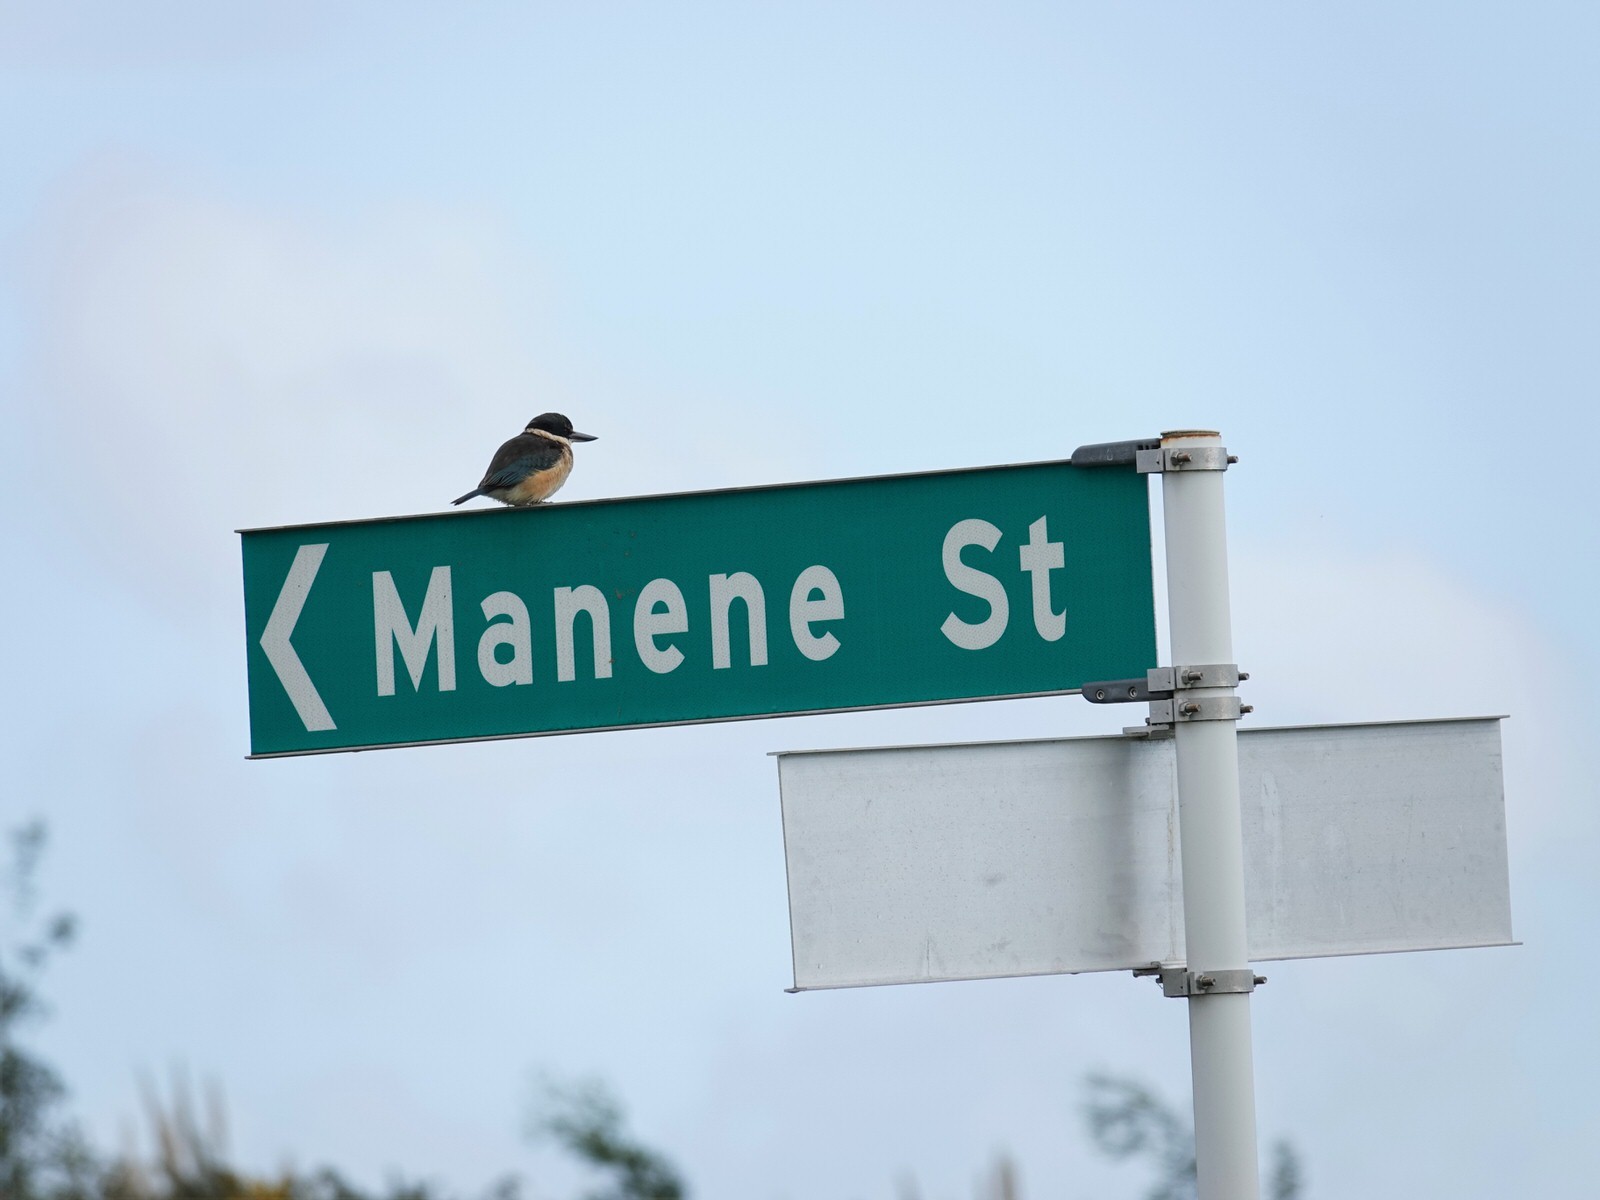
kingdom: Animalia
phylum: Chordata
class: Aves
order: Coraciiformes
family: Alcedinidae
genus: Todiramphus
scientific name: Todiramphus sanctus
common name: Sacred kingfisher
